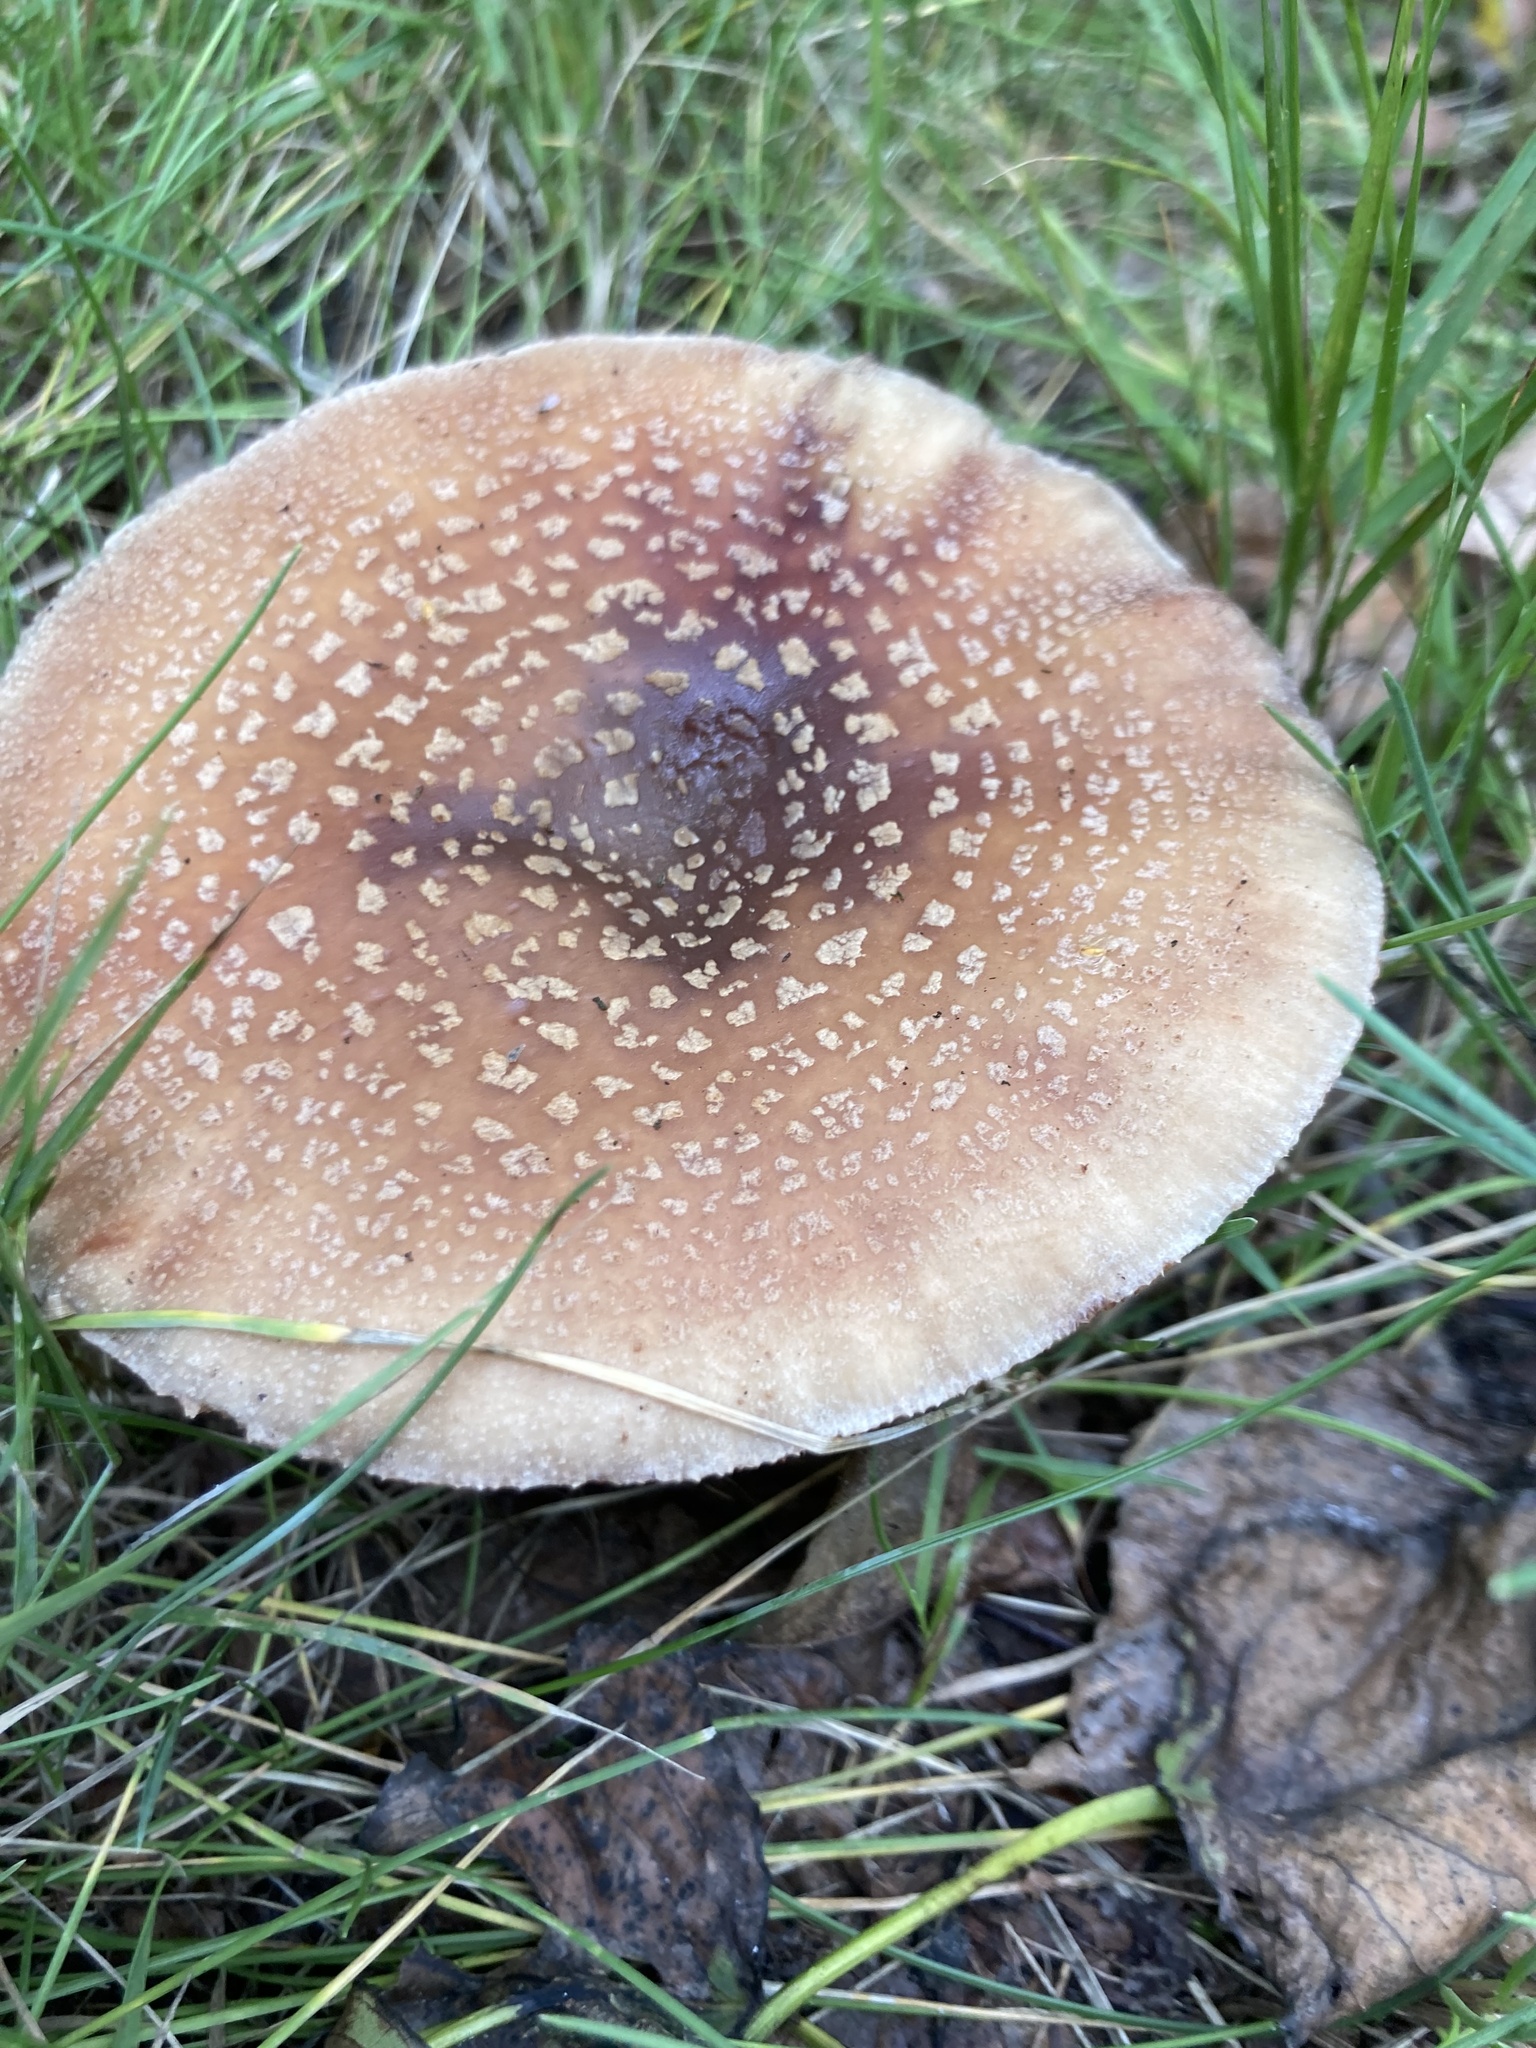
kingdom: Fungi
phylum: Basidiomycota
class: Agaricomycetes
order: Agaricales
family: Amanitaceae
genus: Amanita
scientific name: Amanita rubescens
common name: Blusher
